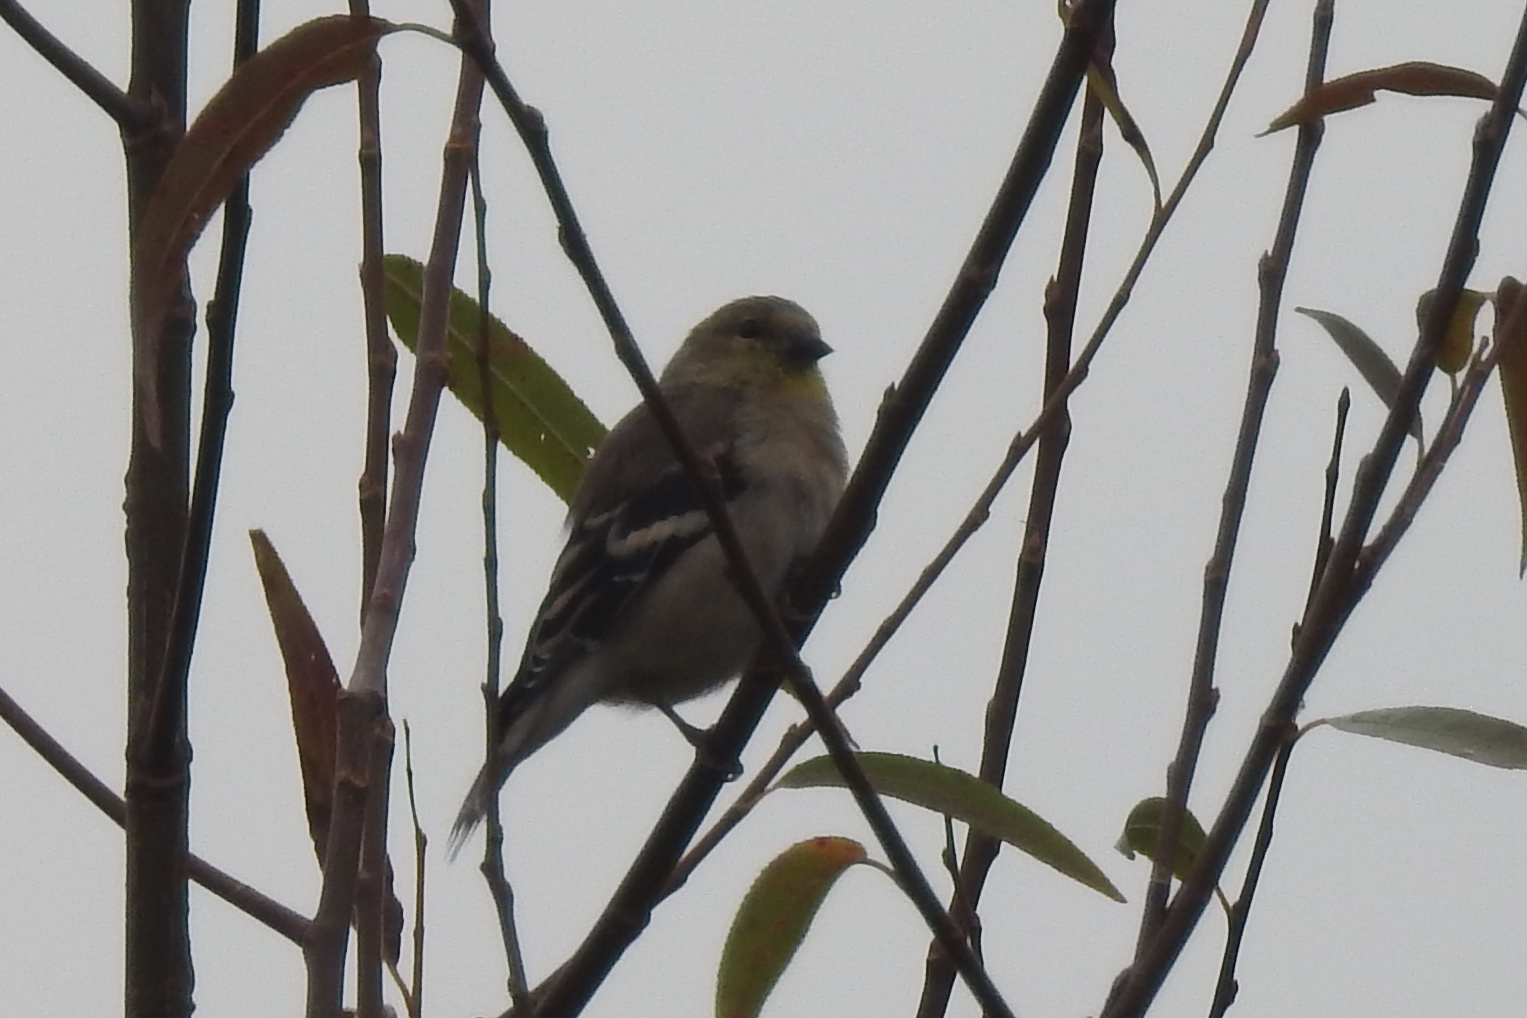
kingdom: Animalia
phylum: Chordata
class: Aves
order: Passeriformes
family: Fringillidae
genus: Spinus
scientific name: Spinus tristis
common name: American goldfinch
